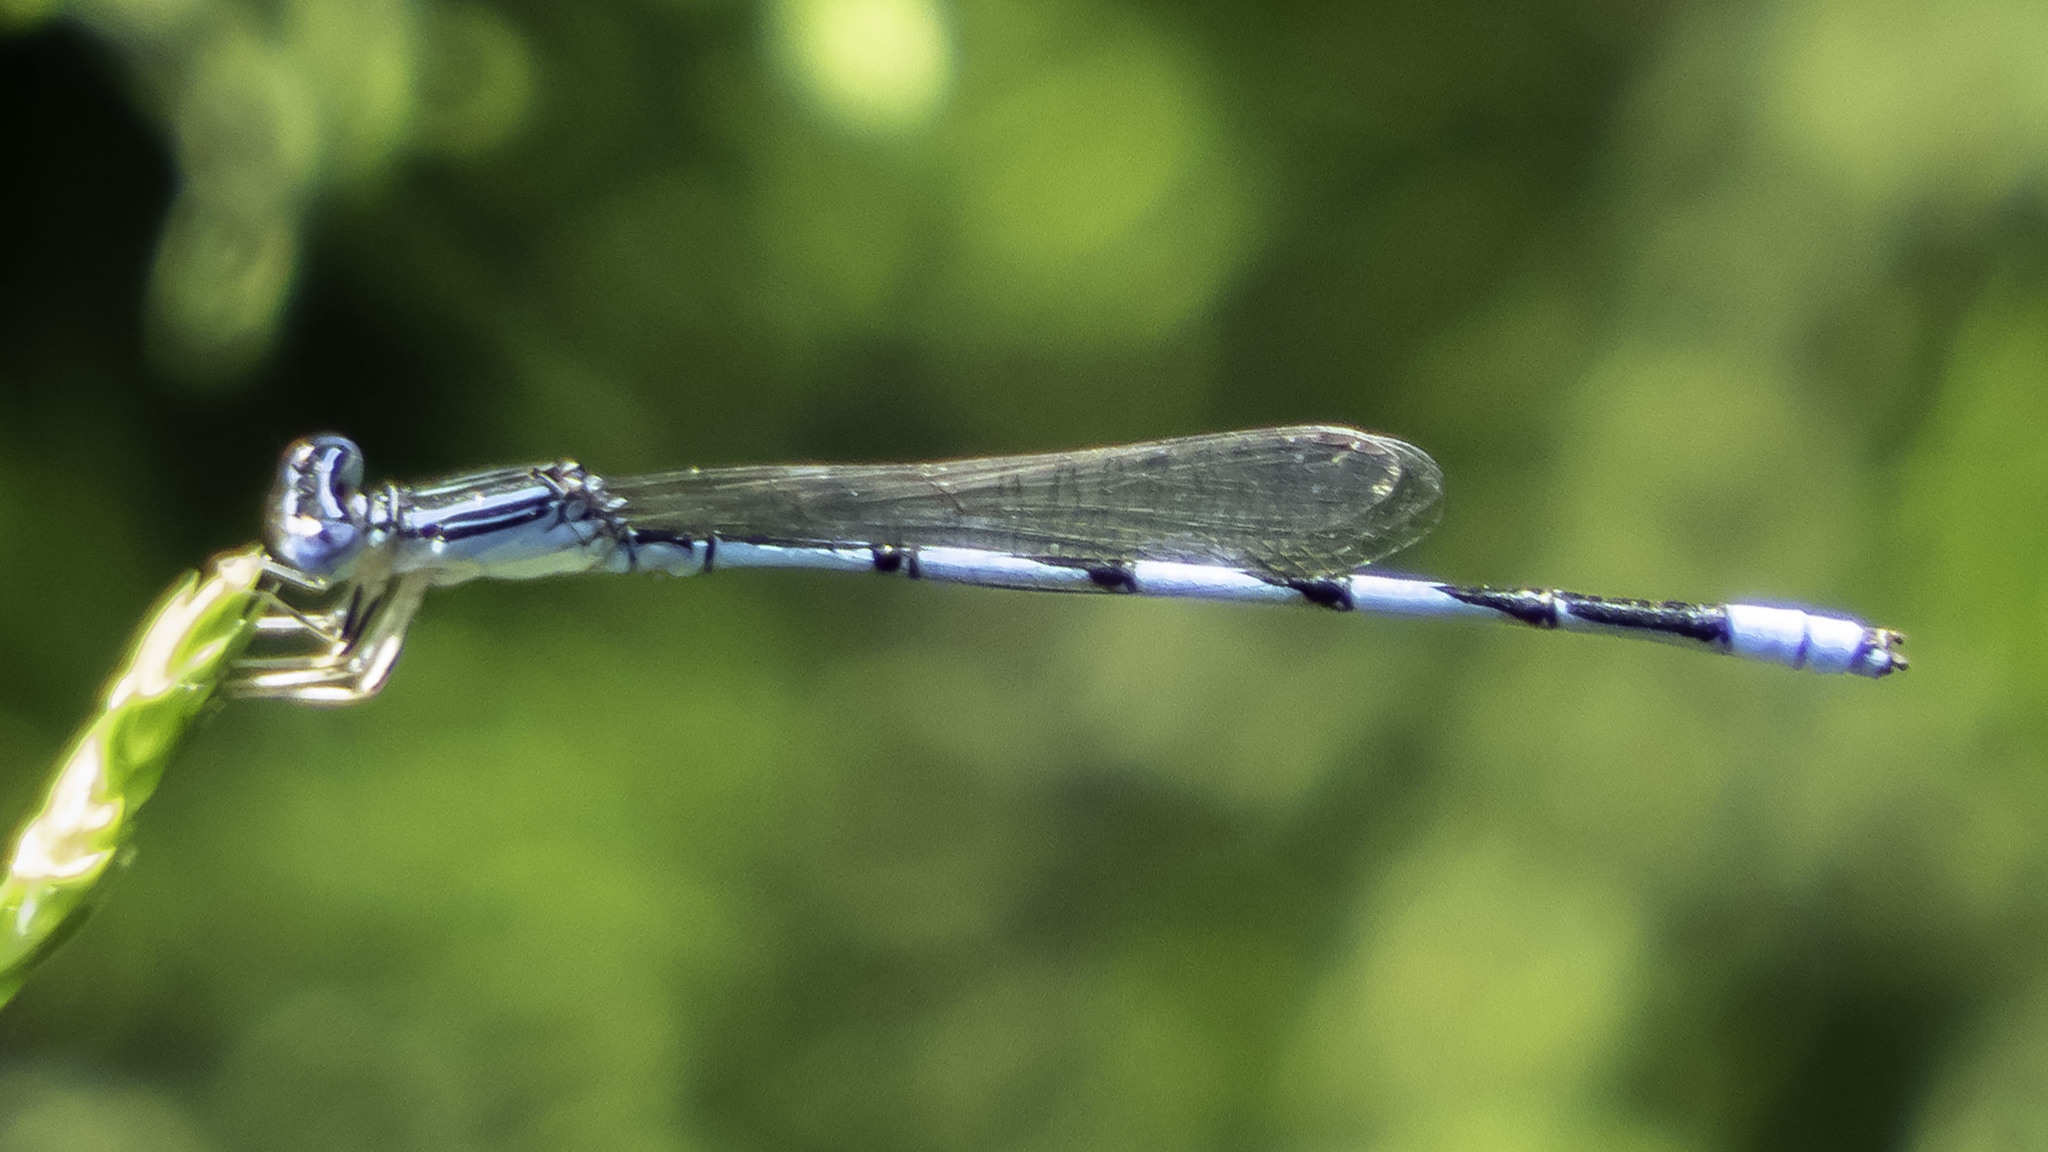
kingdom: Animalia
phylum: Arthropoda
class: Insecta
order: Odonata
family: Coenagrionidae
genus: Enallagma
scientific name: Enallagma basidens
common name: Double-striped bluet
